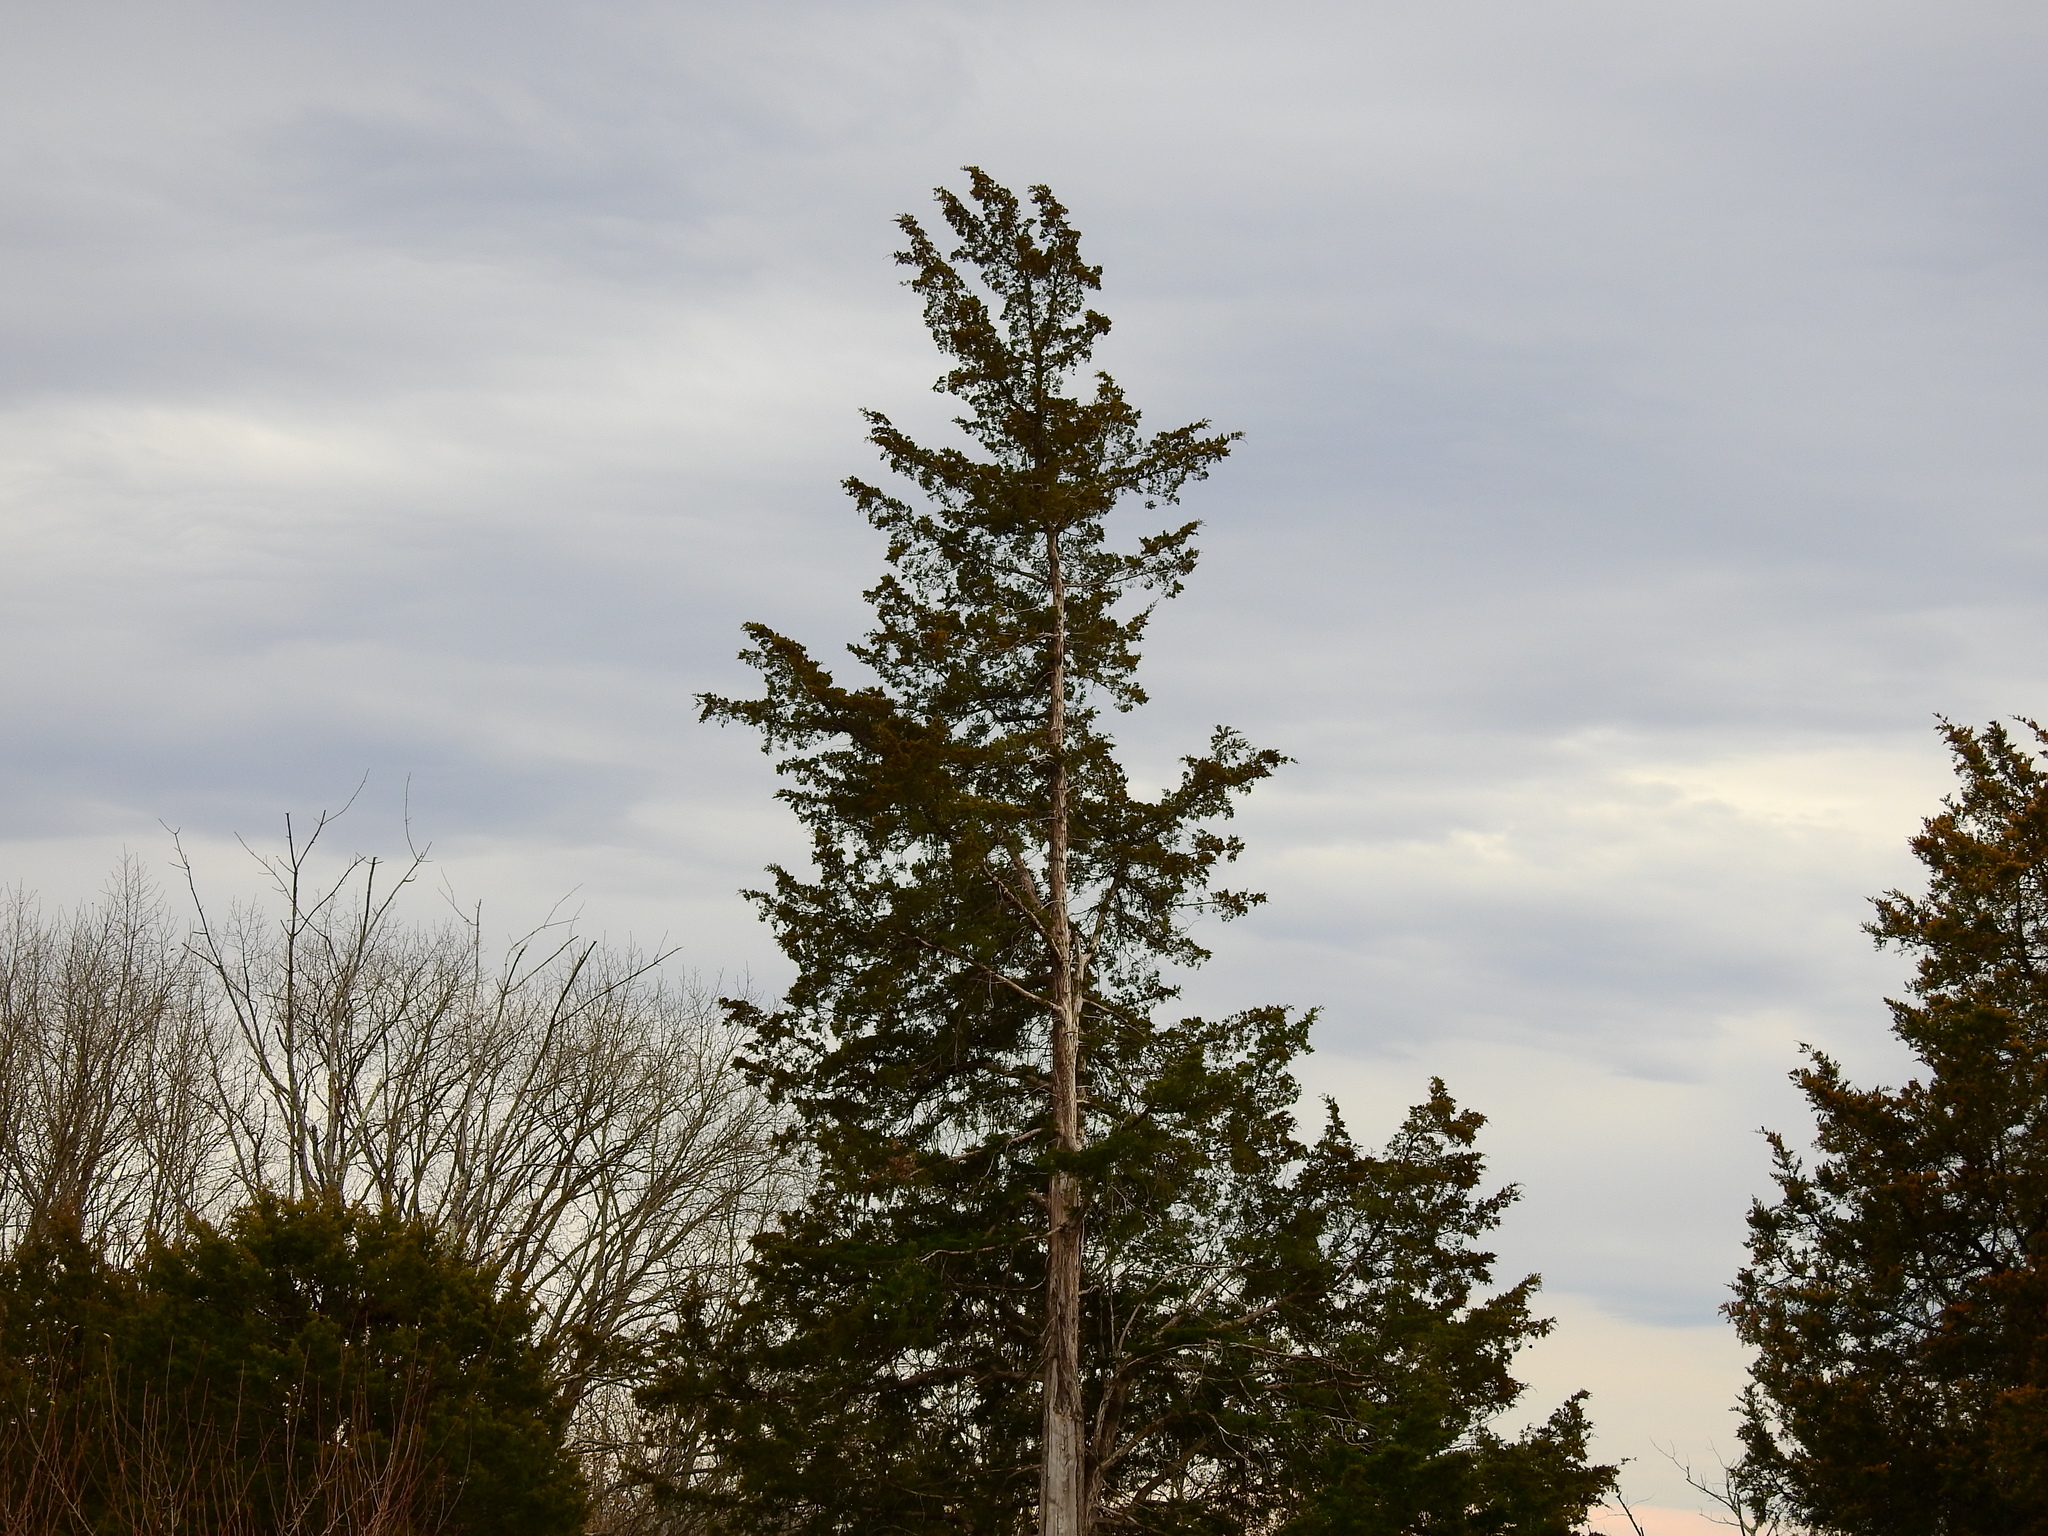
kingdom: Plantae
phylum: Tracheophyta
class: Pinopsida
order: Pinales
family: Cupressaceae
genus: Juniperus
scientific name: Juniperus virginiana
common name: Red juniper
